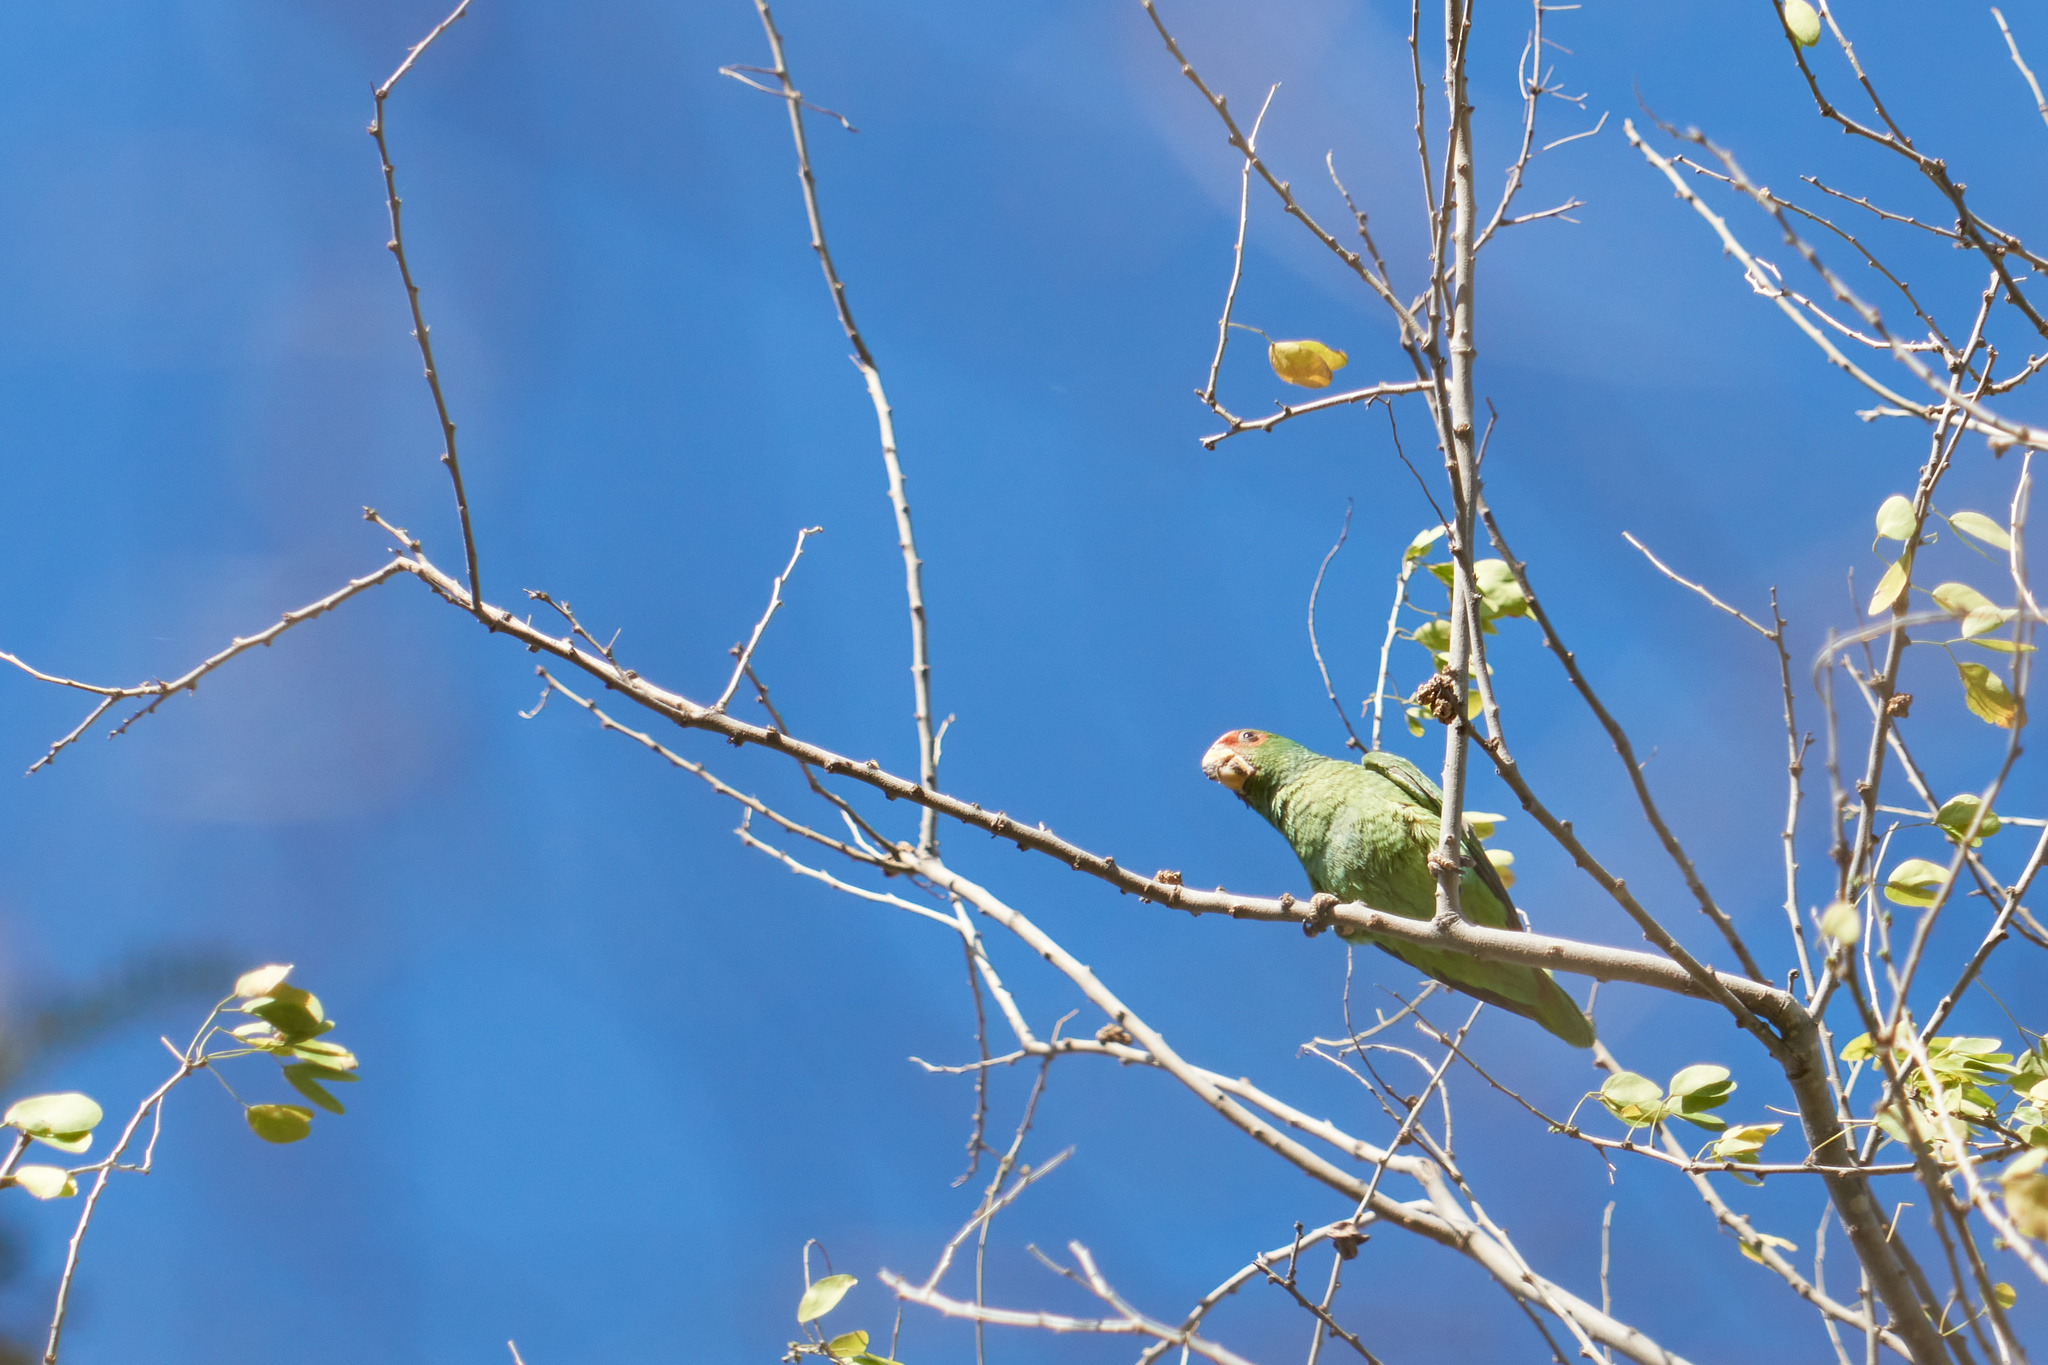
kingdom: Animalia
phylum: Chordata
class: Aves
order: Psittaciformes
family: Psittacidae
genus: Amazona
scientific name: Amazona albifrons
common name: White-fronted amazon
